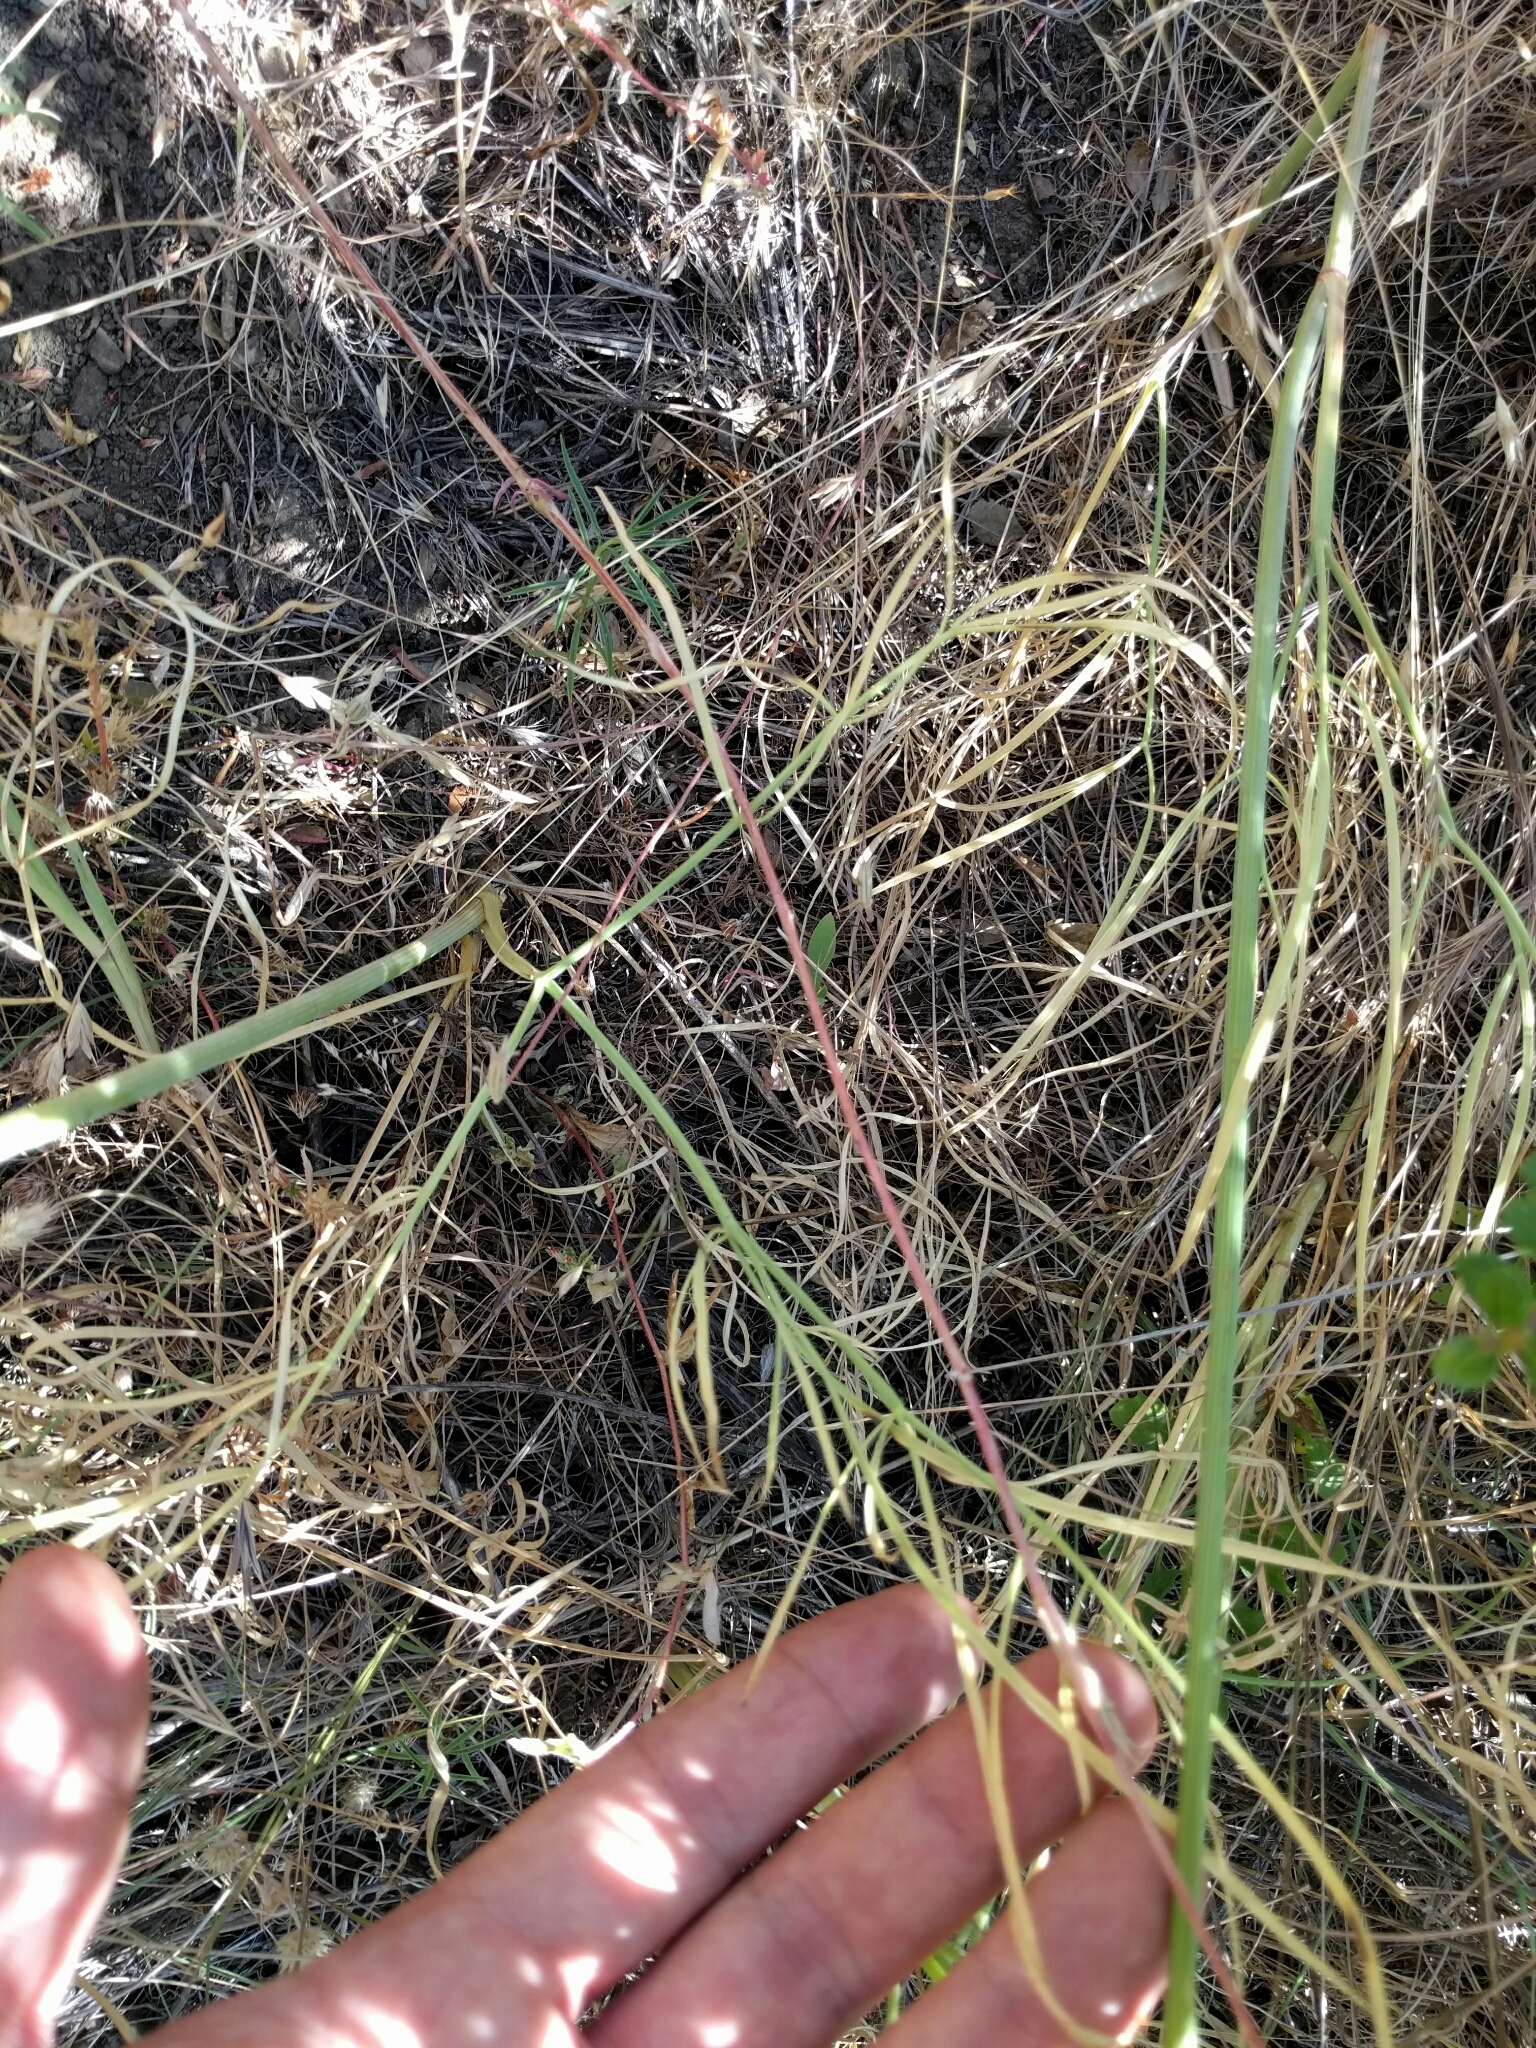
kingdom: Plantae
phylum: Tracheophyta
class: Magnoliopsida
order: Apiales
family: Apiaceae
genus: Perideridia
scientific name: Perideridia kelloggii
